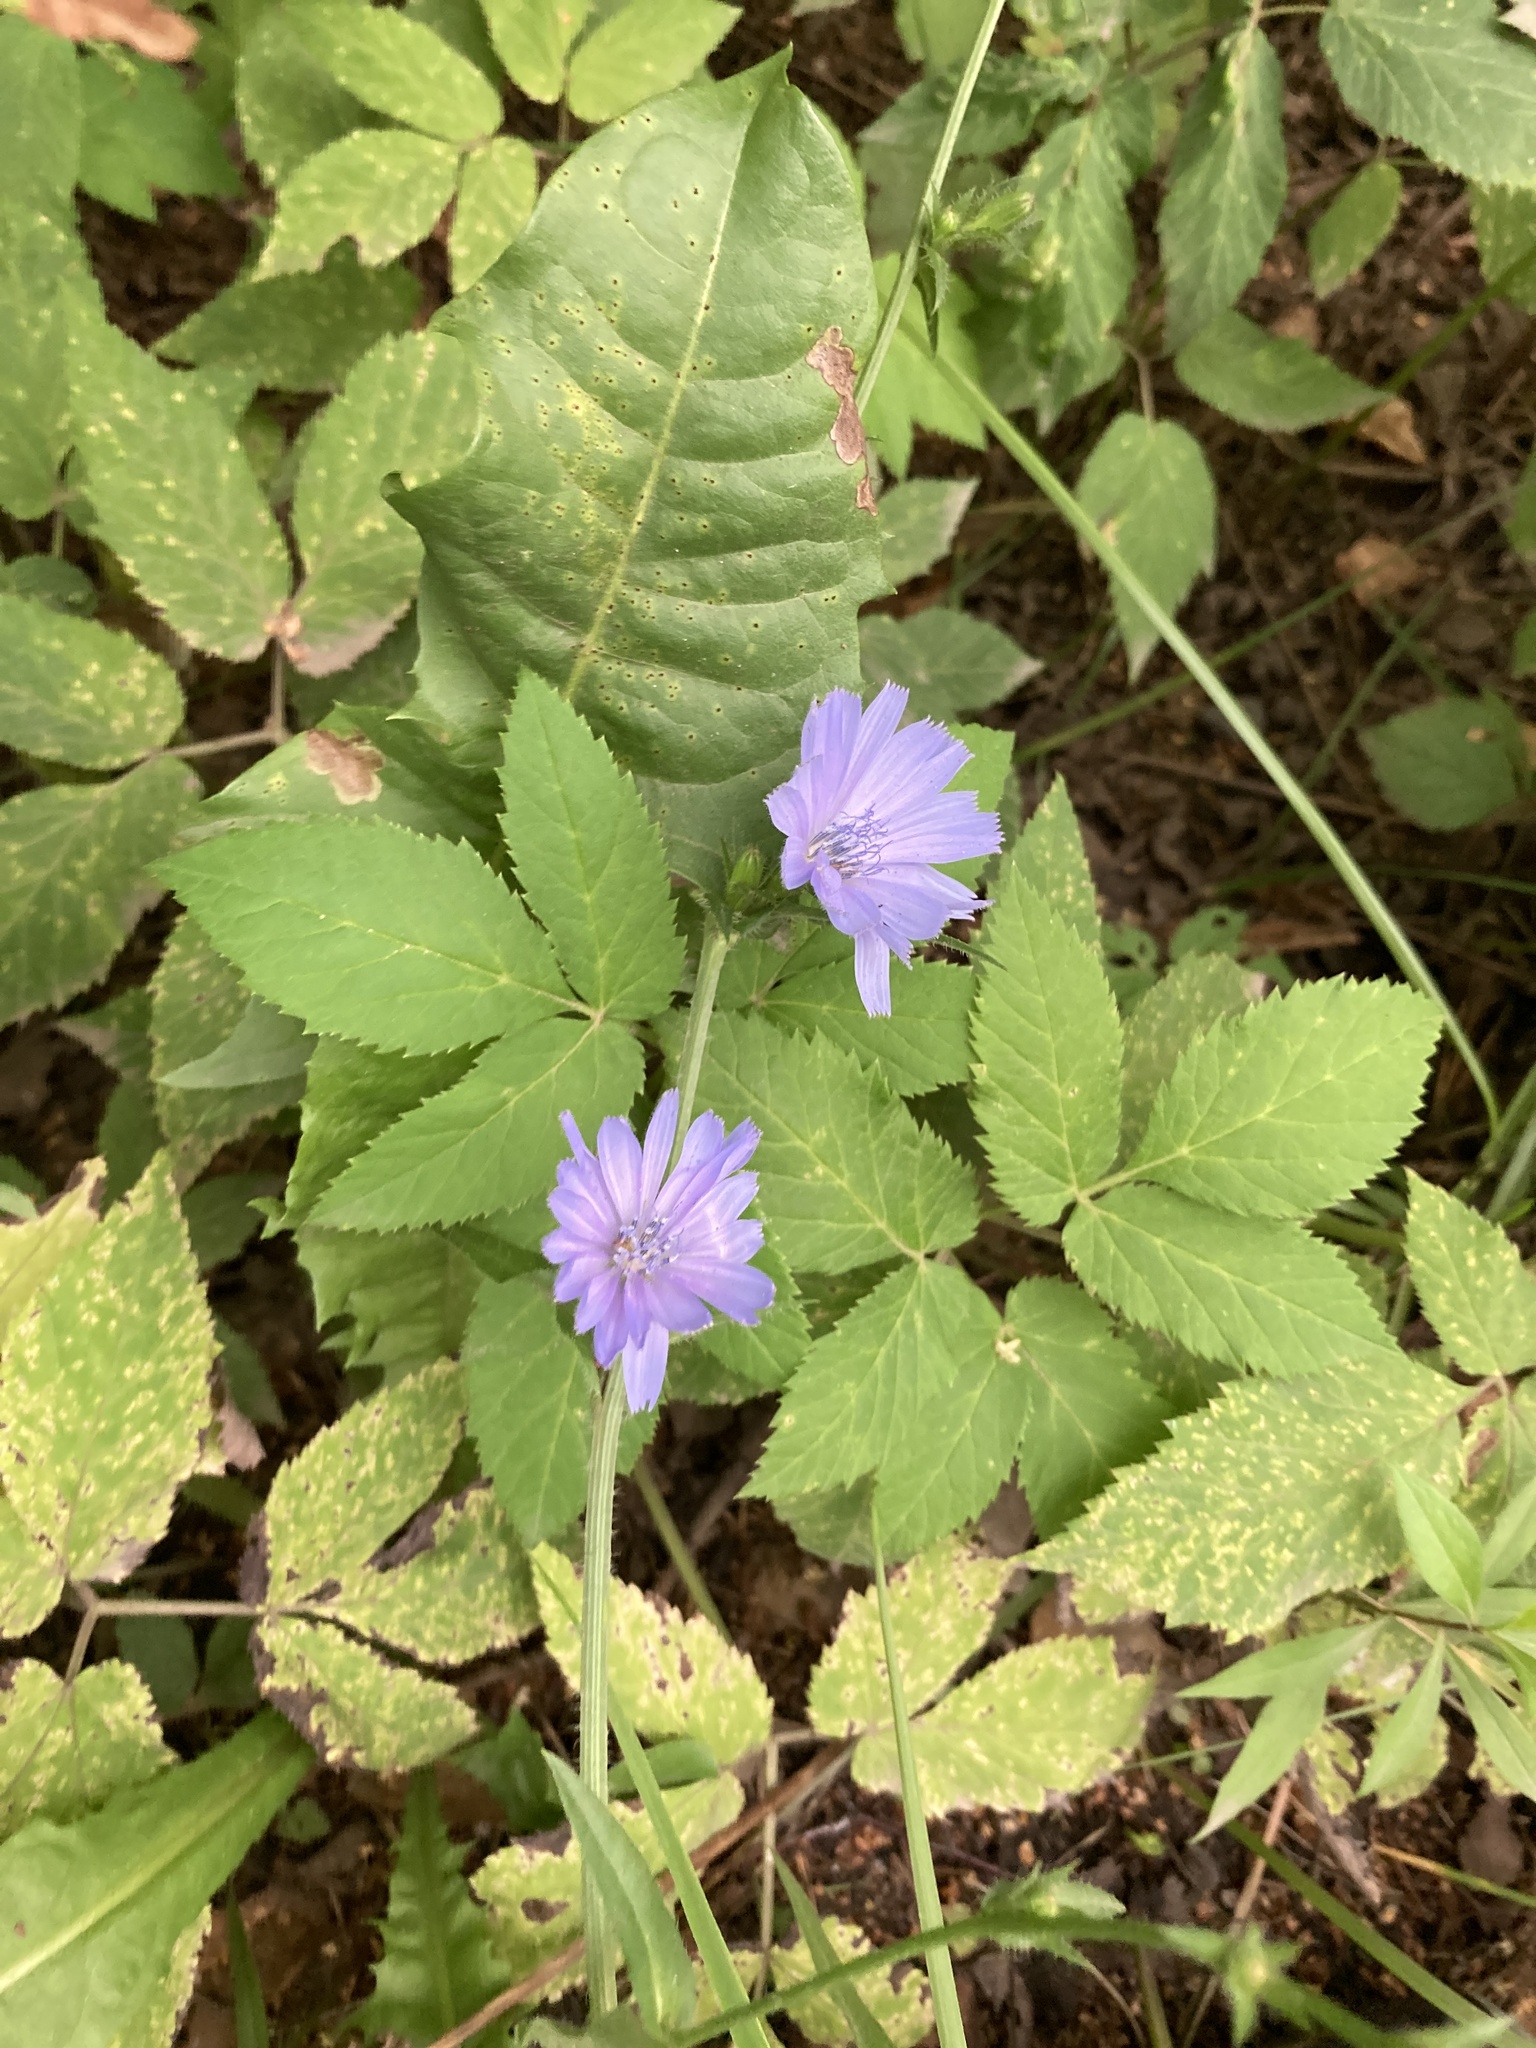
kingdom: Plantae
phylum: Tracheophyta
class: Magnoliopsida
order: Asterales
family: Asteraceae
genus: Cichorium
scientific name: Cichorium intybus
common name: Chicory
